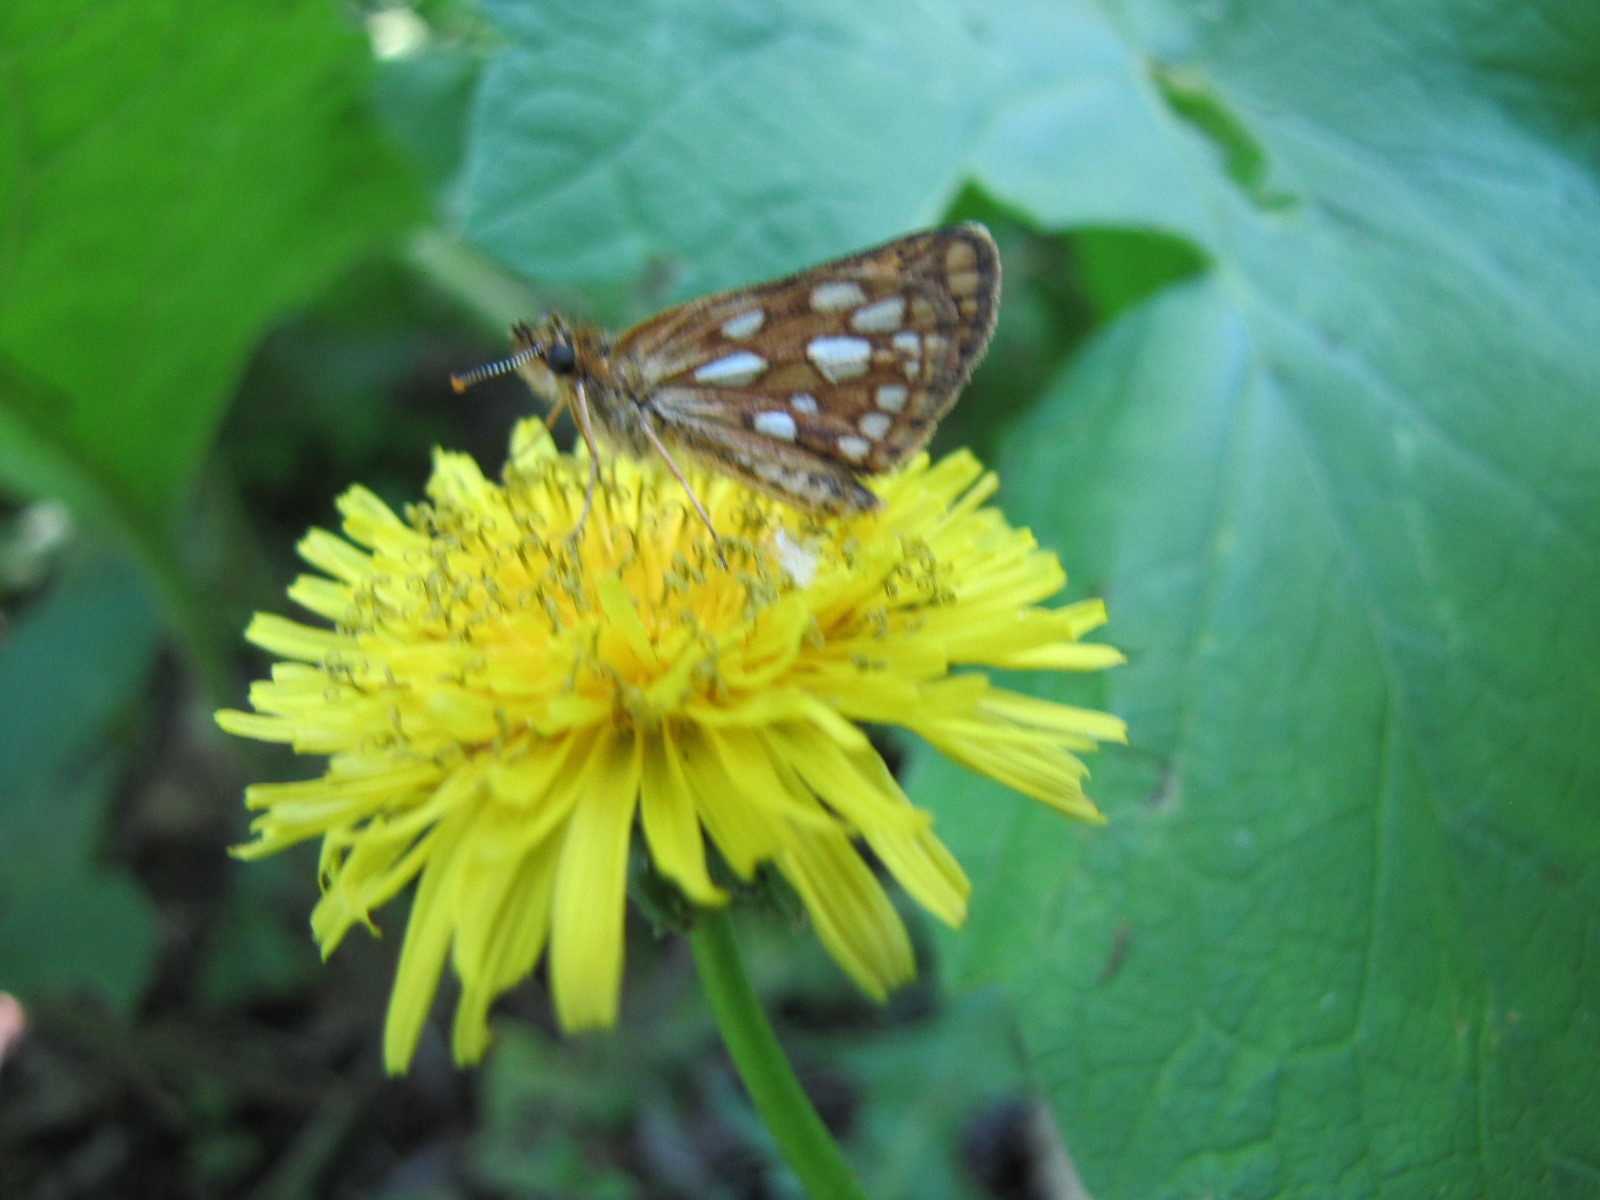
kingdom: Animalia
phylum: Arthropoda
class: Insecta
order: Lepidoptera
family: Hesperiidae
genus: Carterocephalus
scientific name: Carterocephalus mandan
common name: Arctic skipperling
